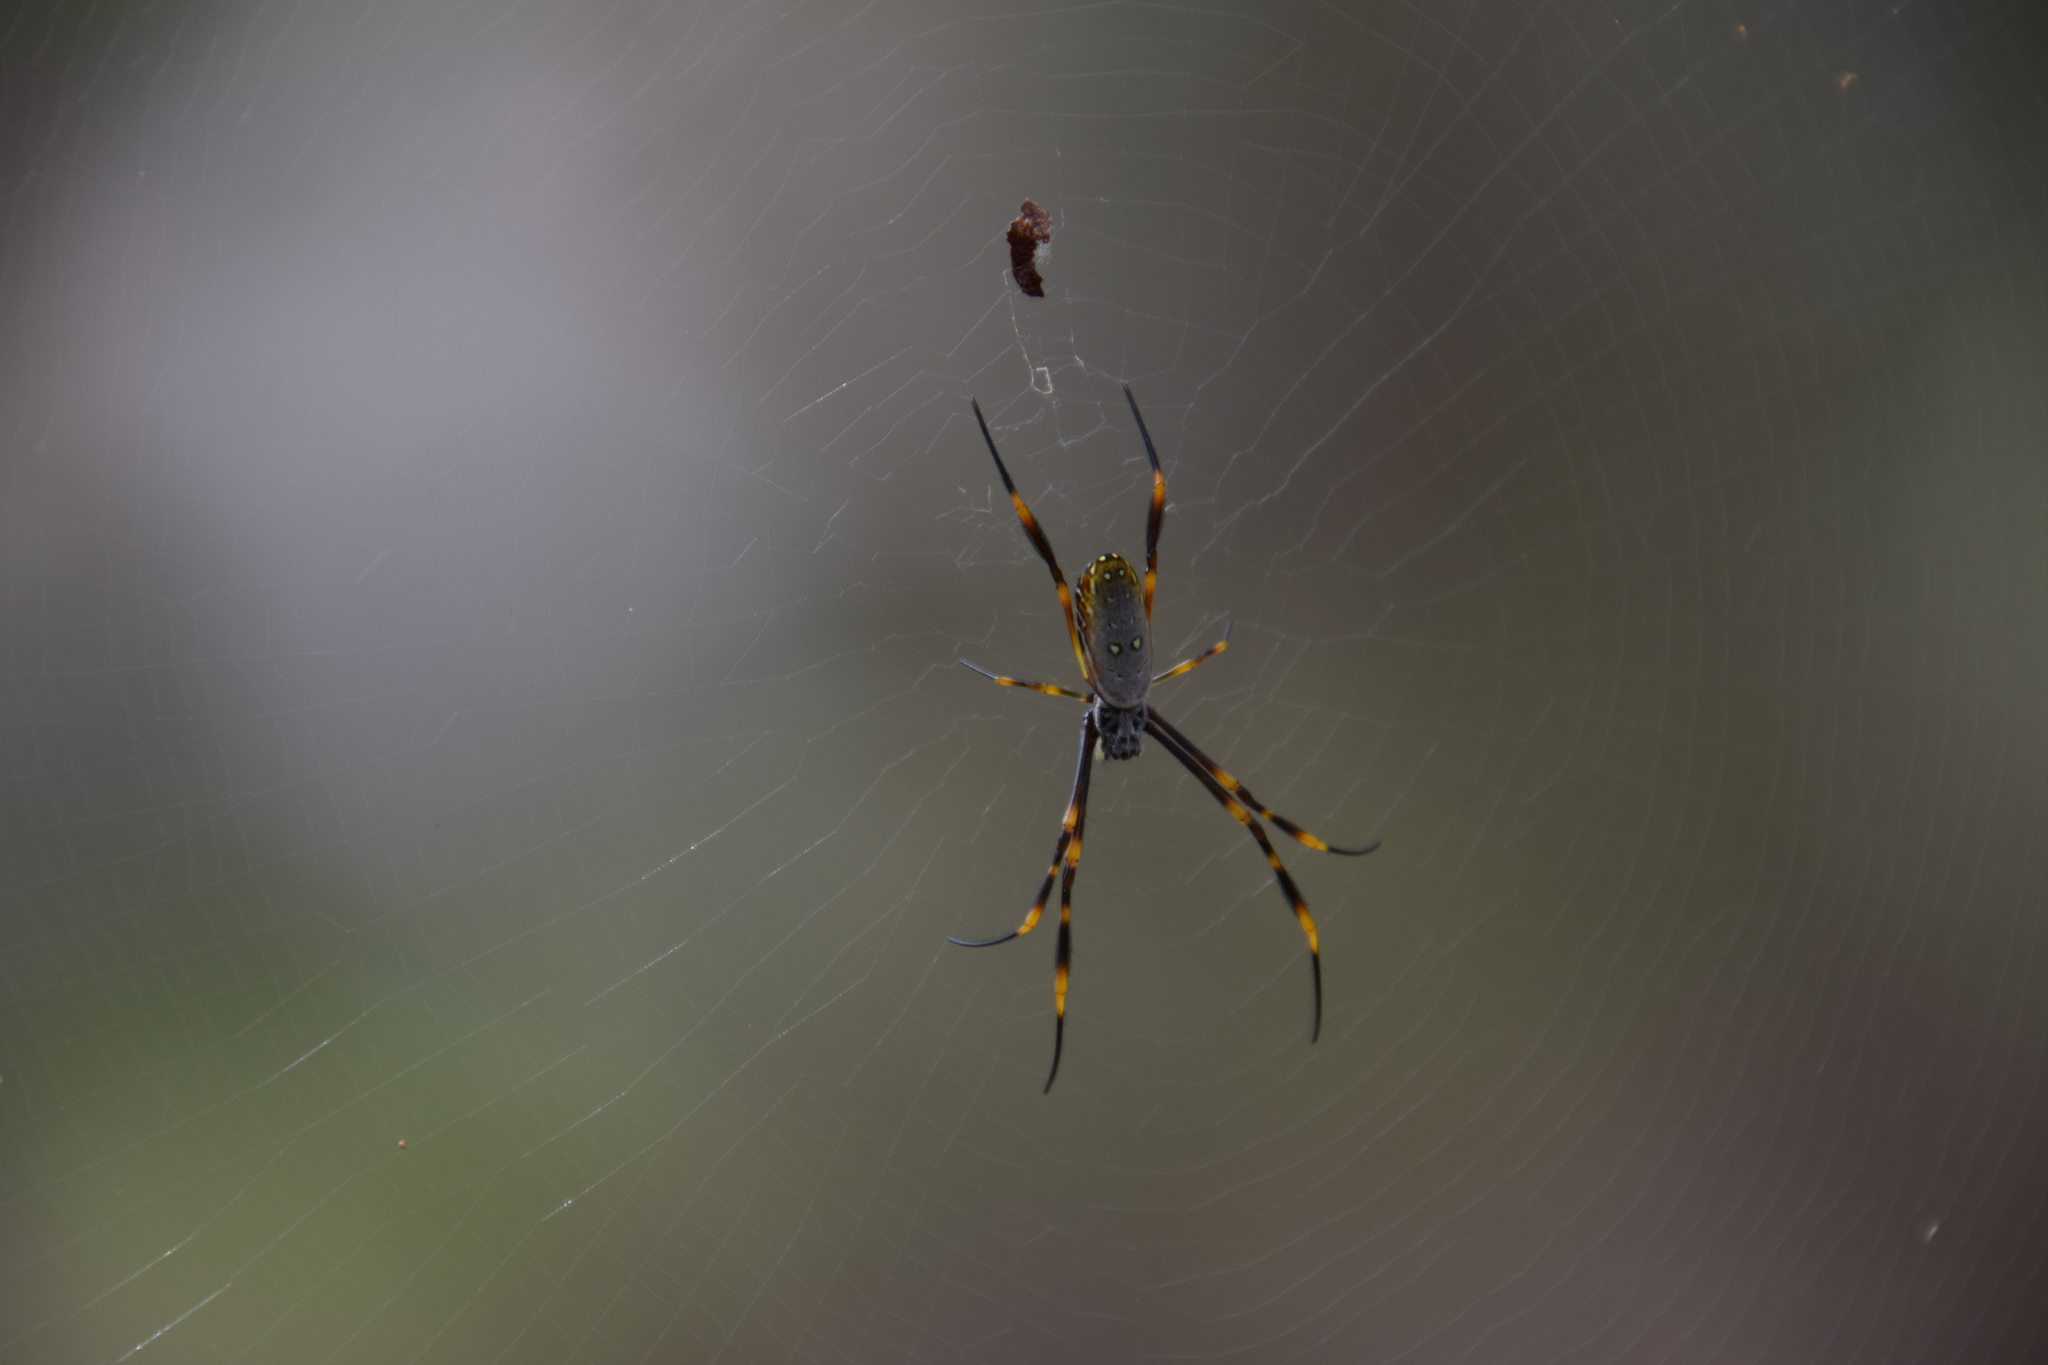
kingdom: Animalia
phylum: Arthropoda
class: Arachnida
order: Araneae
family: Araneidae
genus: Trichonephila
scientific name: Trichonephila plumipes
